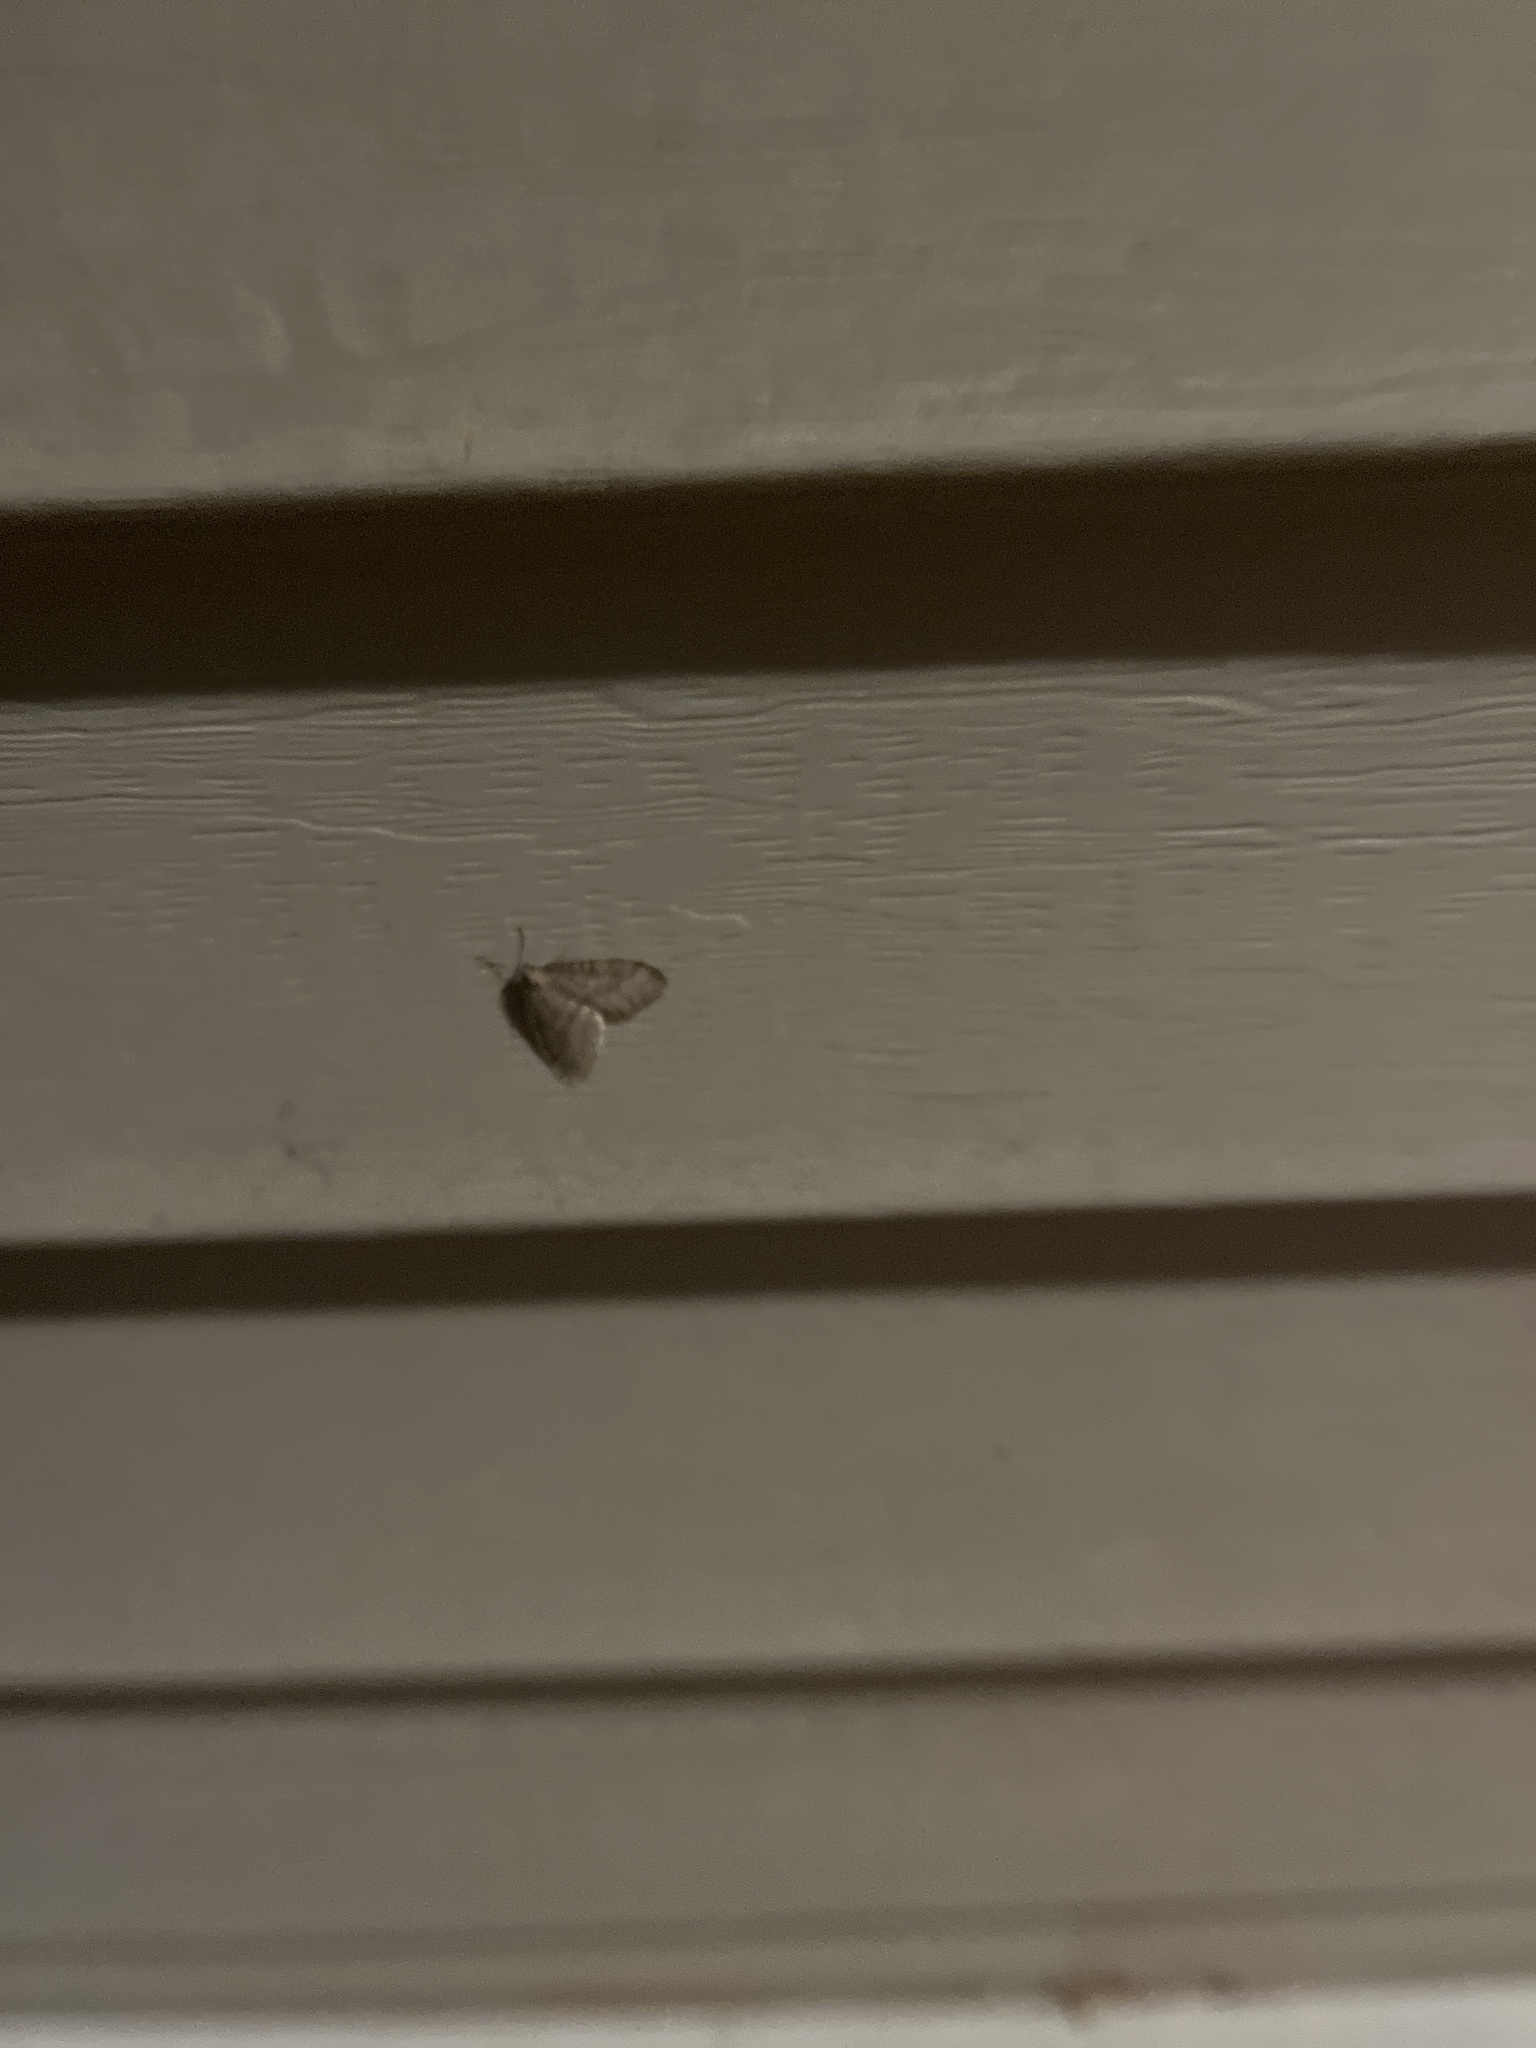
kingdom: Animalia
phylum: Arthropoda
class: Insecta
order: Lepidoptera
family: Geometridae
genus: Operophtera
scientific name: Operophtera bruceata
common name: Bruce spanworm
